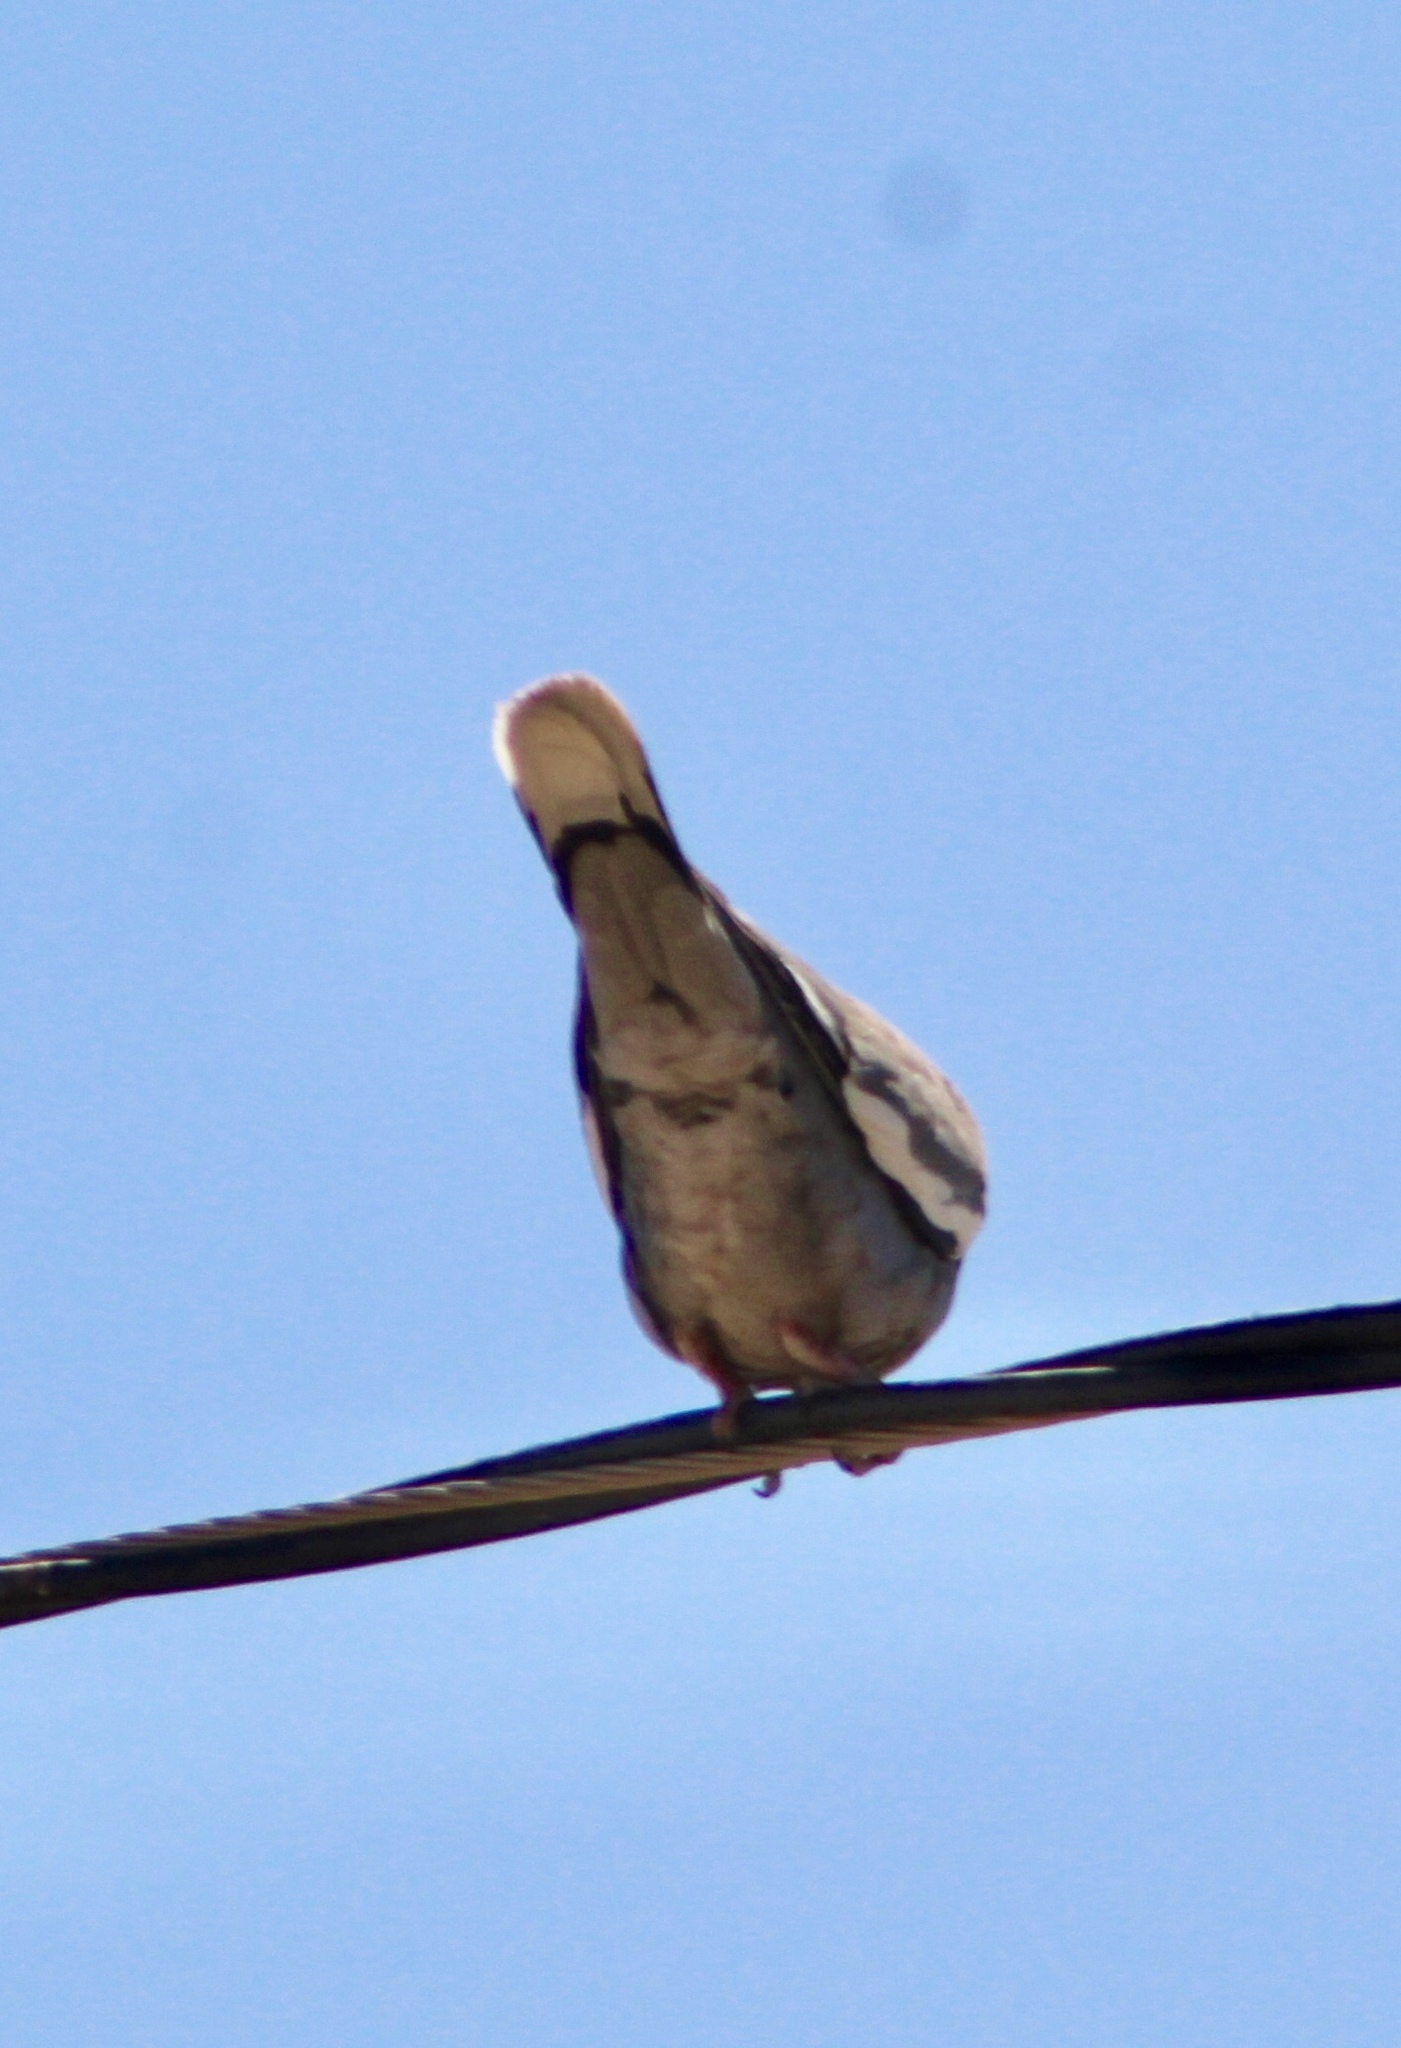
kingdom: Animalia
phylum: Chordata
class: Aves
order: Columbiformes
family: Columbidae
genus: Zenaida
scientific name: Zenaida asiatica
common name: White-winged dove
